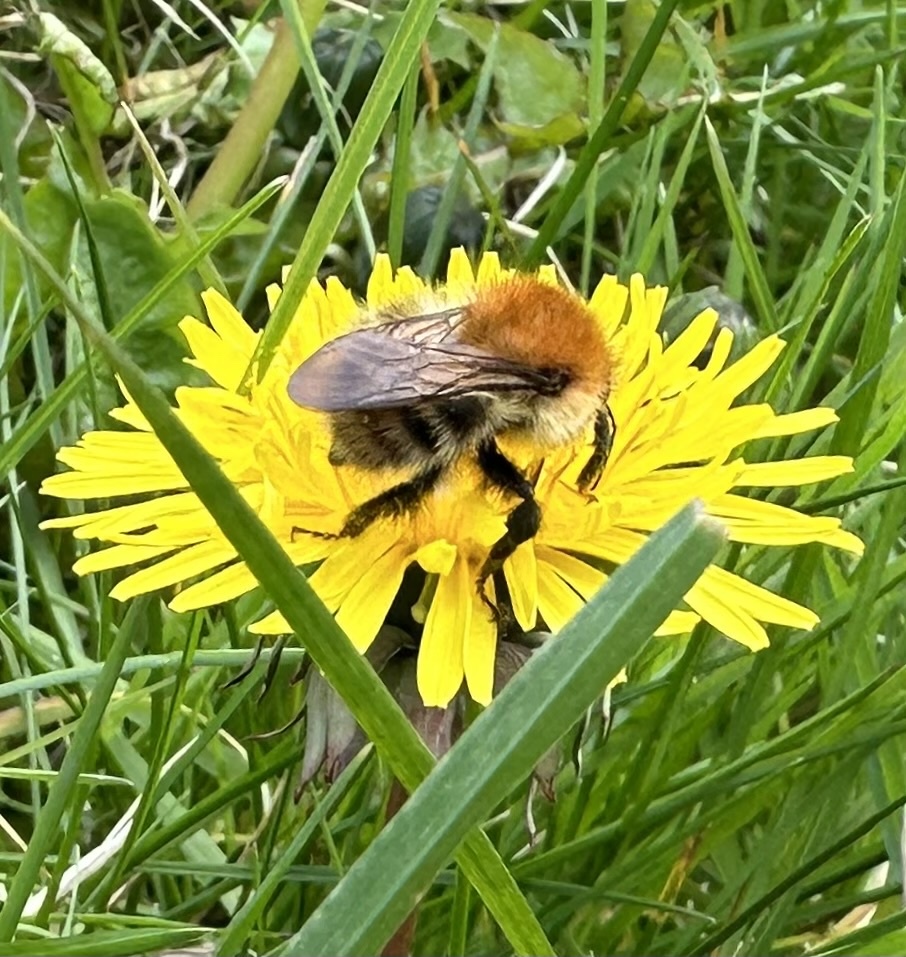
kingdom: Animalia
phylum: Arthropoda
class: Insecta
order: Hymenoptera
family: Apidae
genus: Bombus
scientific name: Bombus pascuorum
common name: Common carder bee
